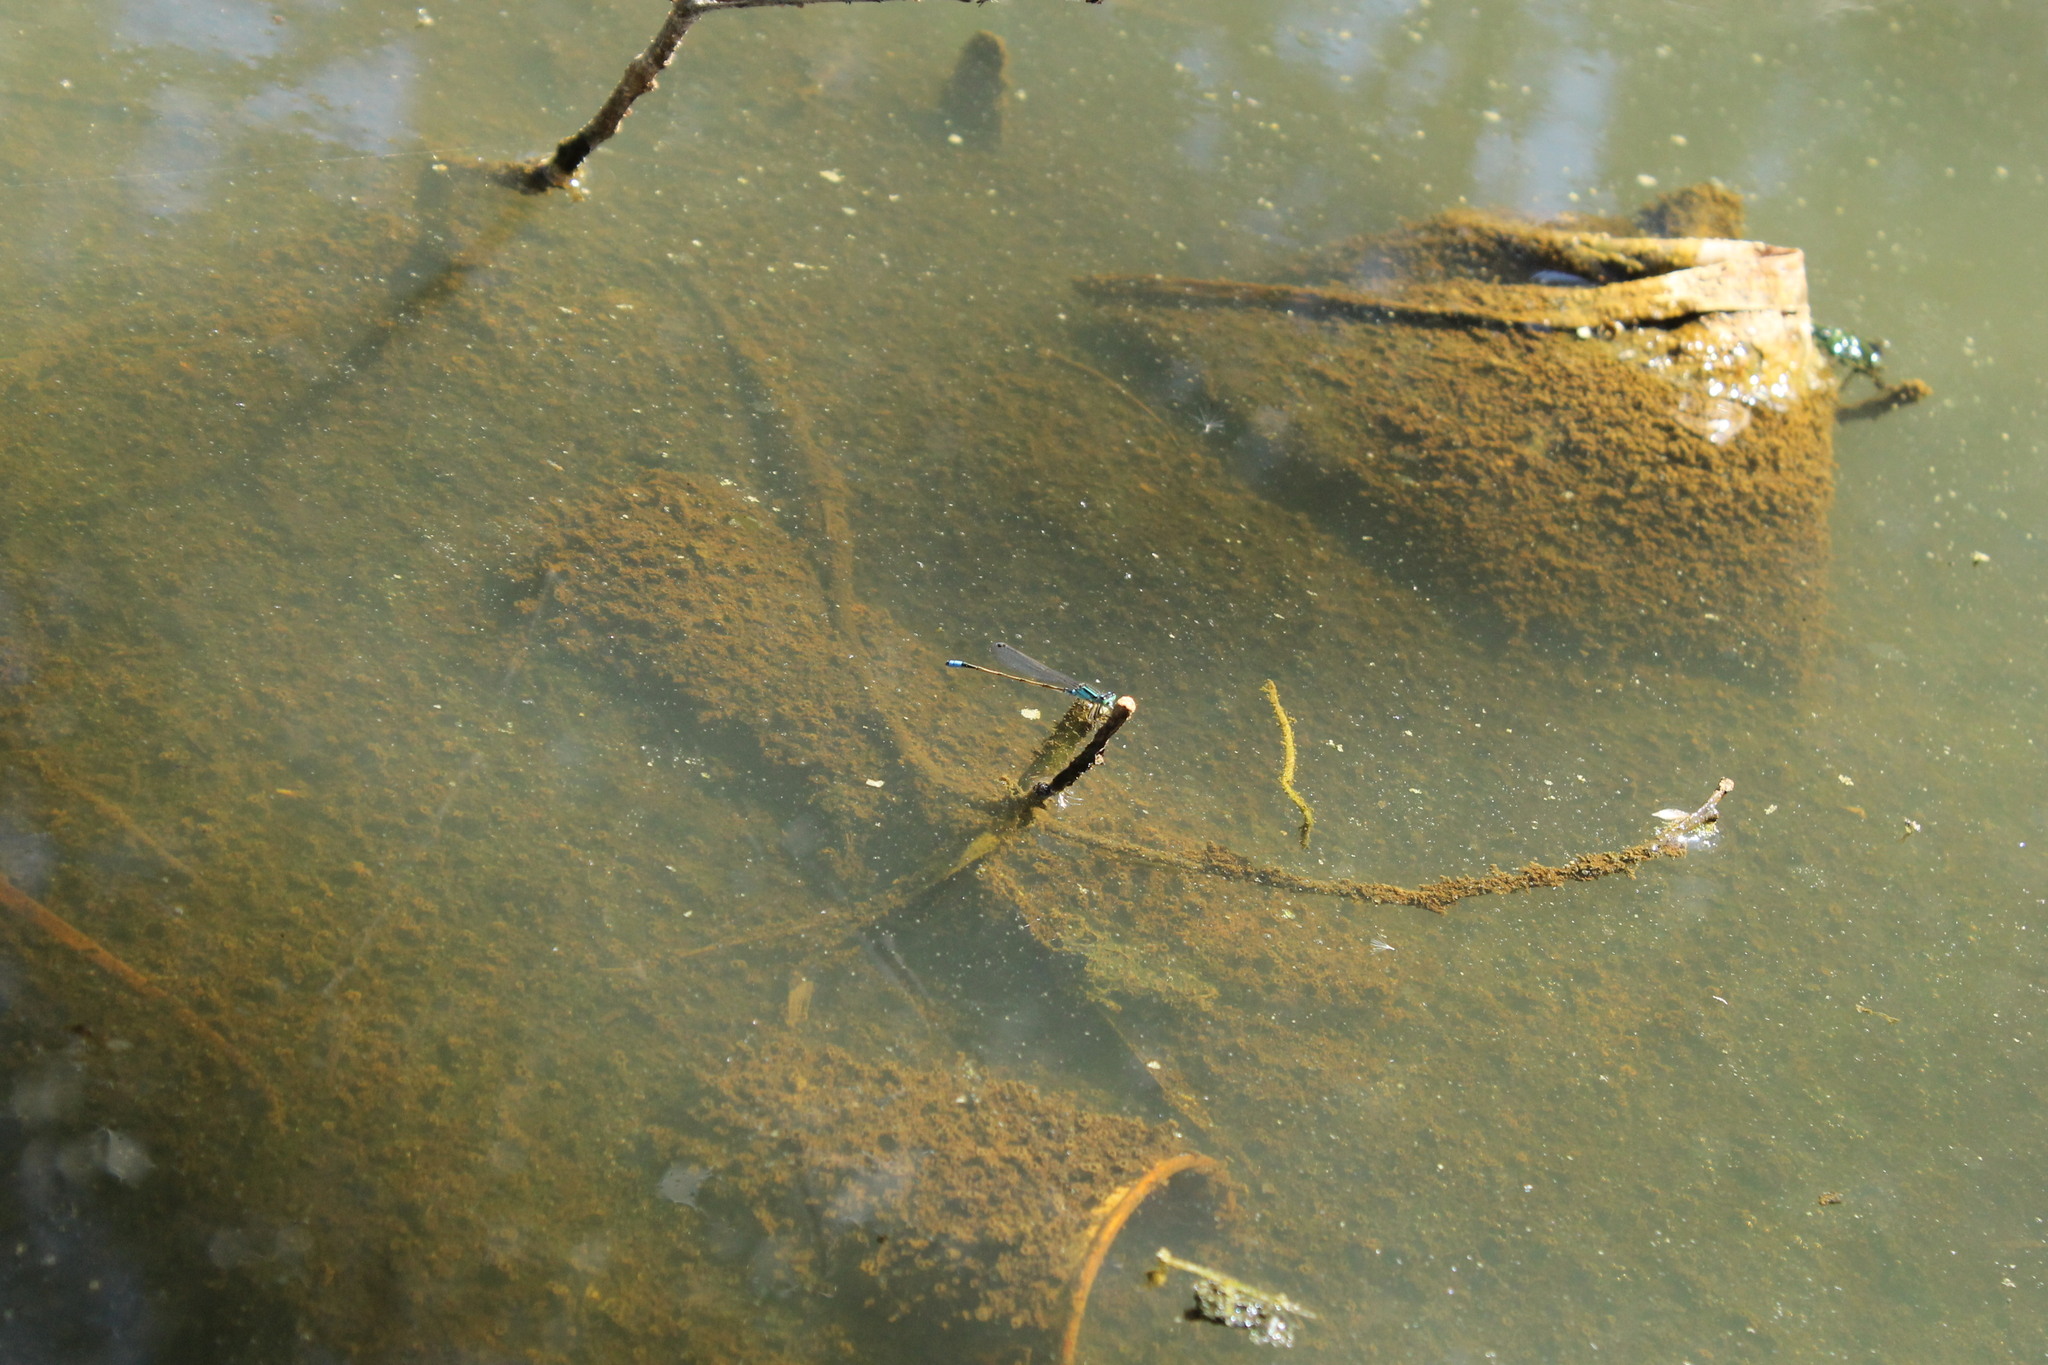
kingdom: Animalia
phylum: Arthropoda
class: Insecta
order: Odonata
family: Coenagrionidae
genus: Ischnura
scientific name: Ischnura heterosticta
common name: Common bluetail
